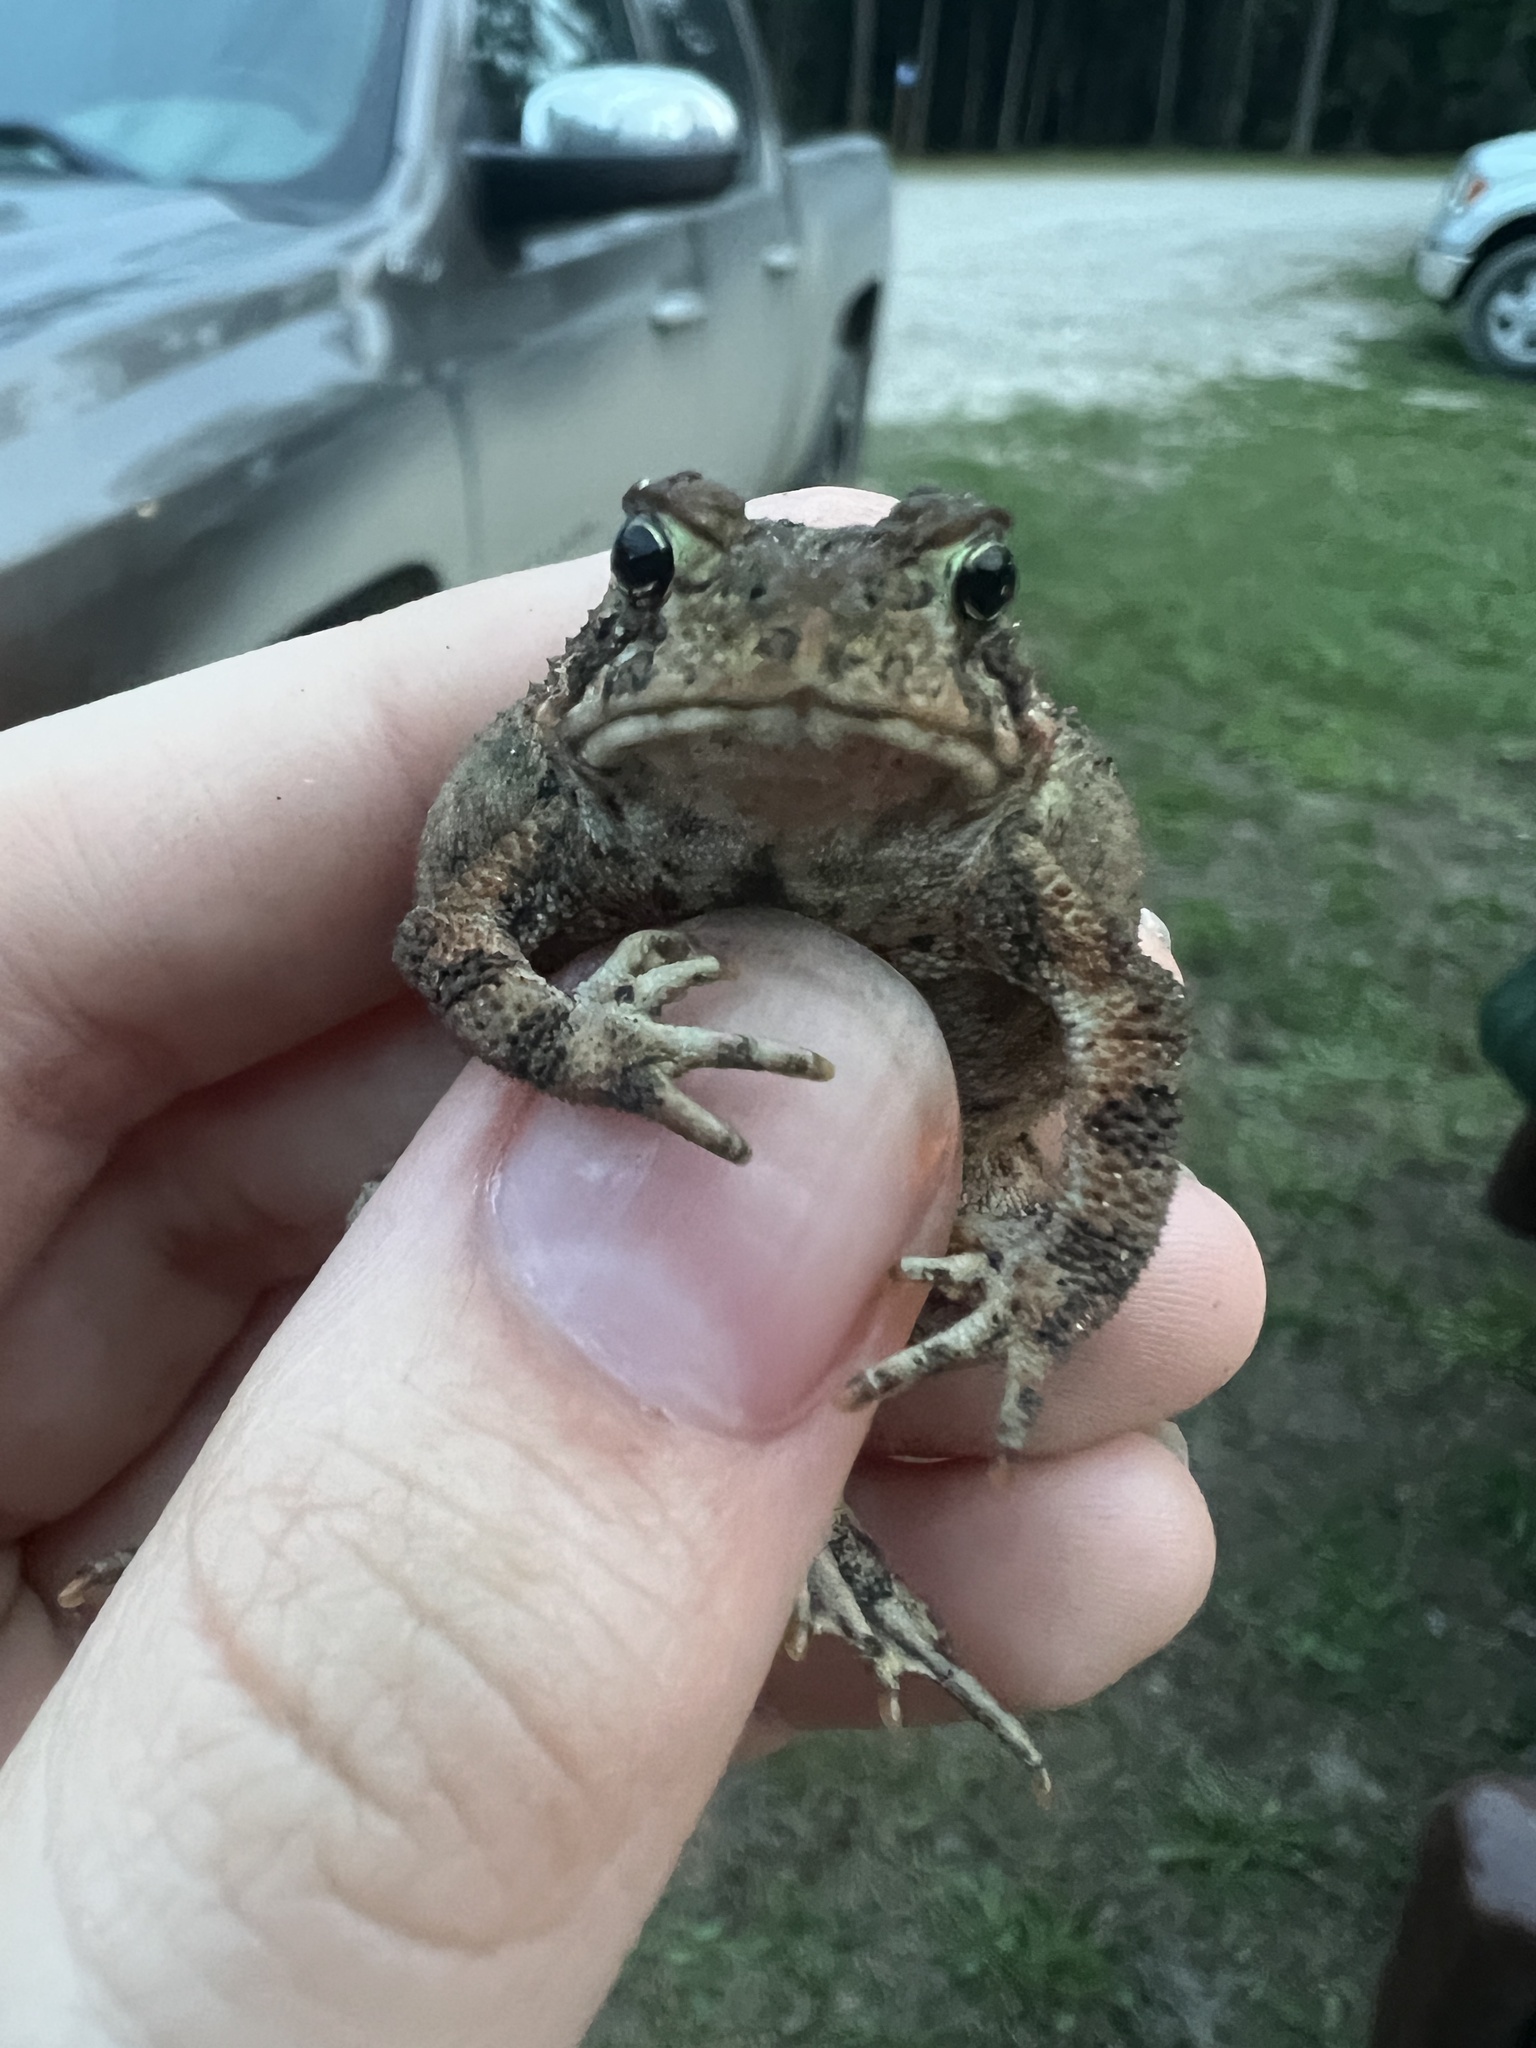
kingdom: Animalia
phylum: Chordata
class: Amphibia
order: Anura
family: Bufonidae
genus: Anaxyrus
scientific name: Anaxyrus americanus
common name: American toad
